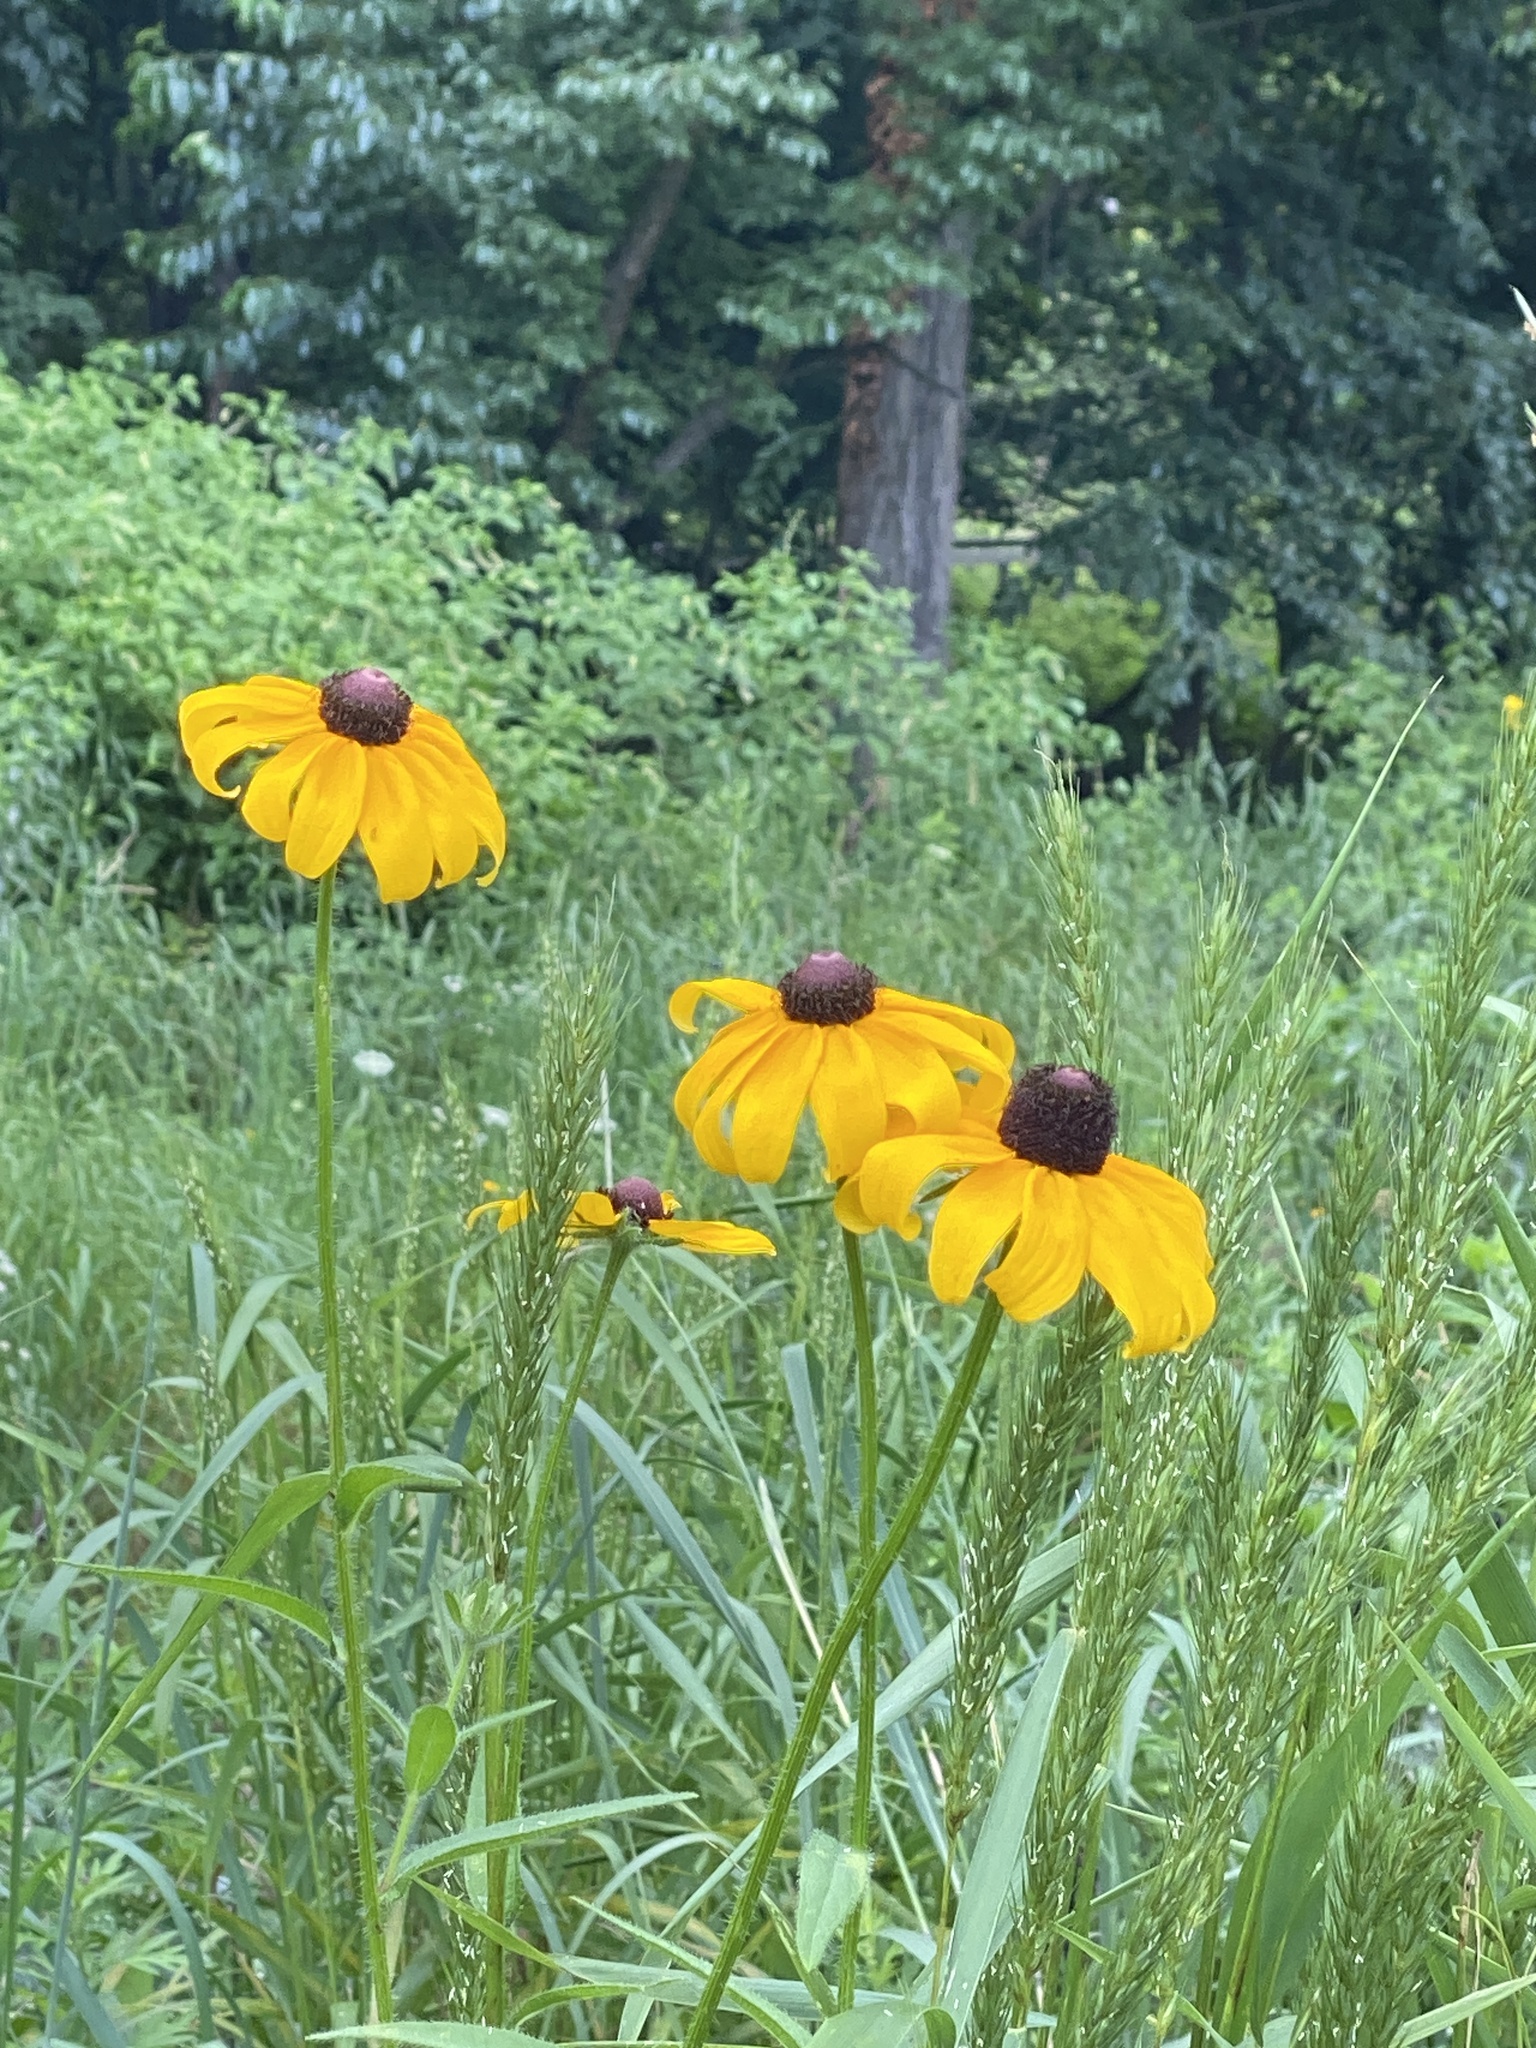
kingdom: Plantae
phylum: Tracheophyta
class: Magnoliopsida
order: Asterales
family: Asteraceae
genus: Rudbeckia
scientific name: Rudbeckia hirta
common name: Black-eyed-susan
